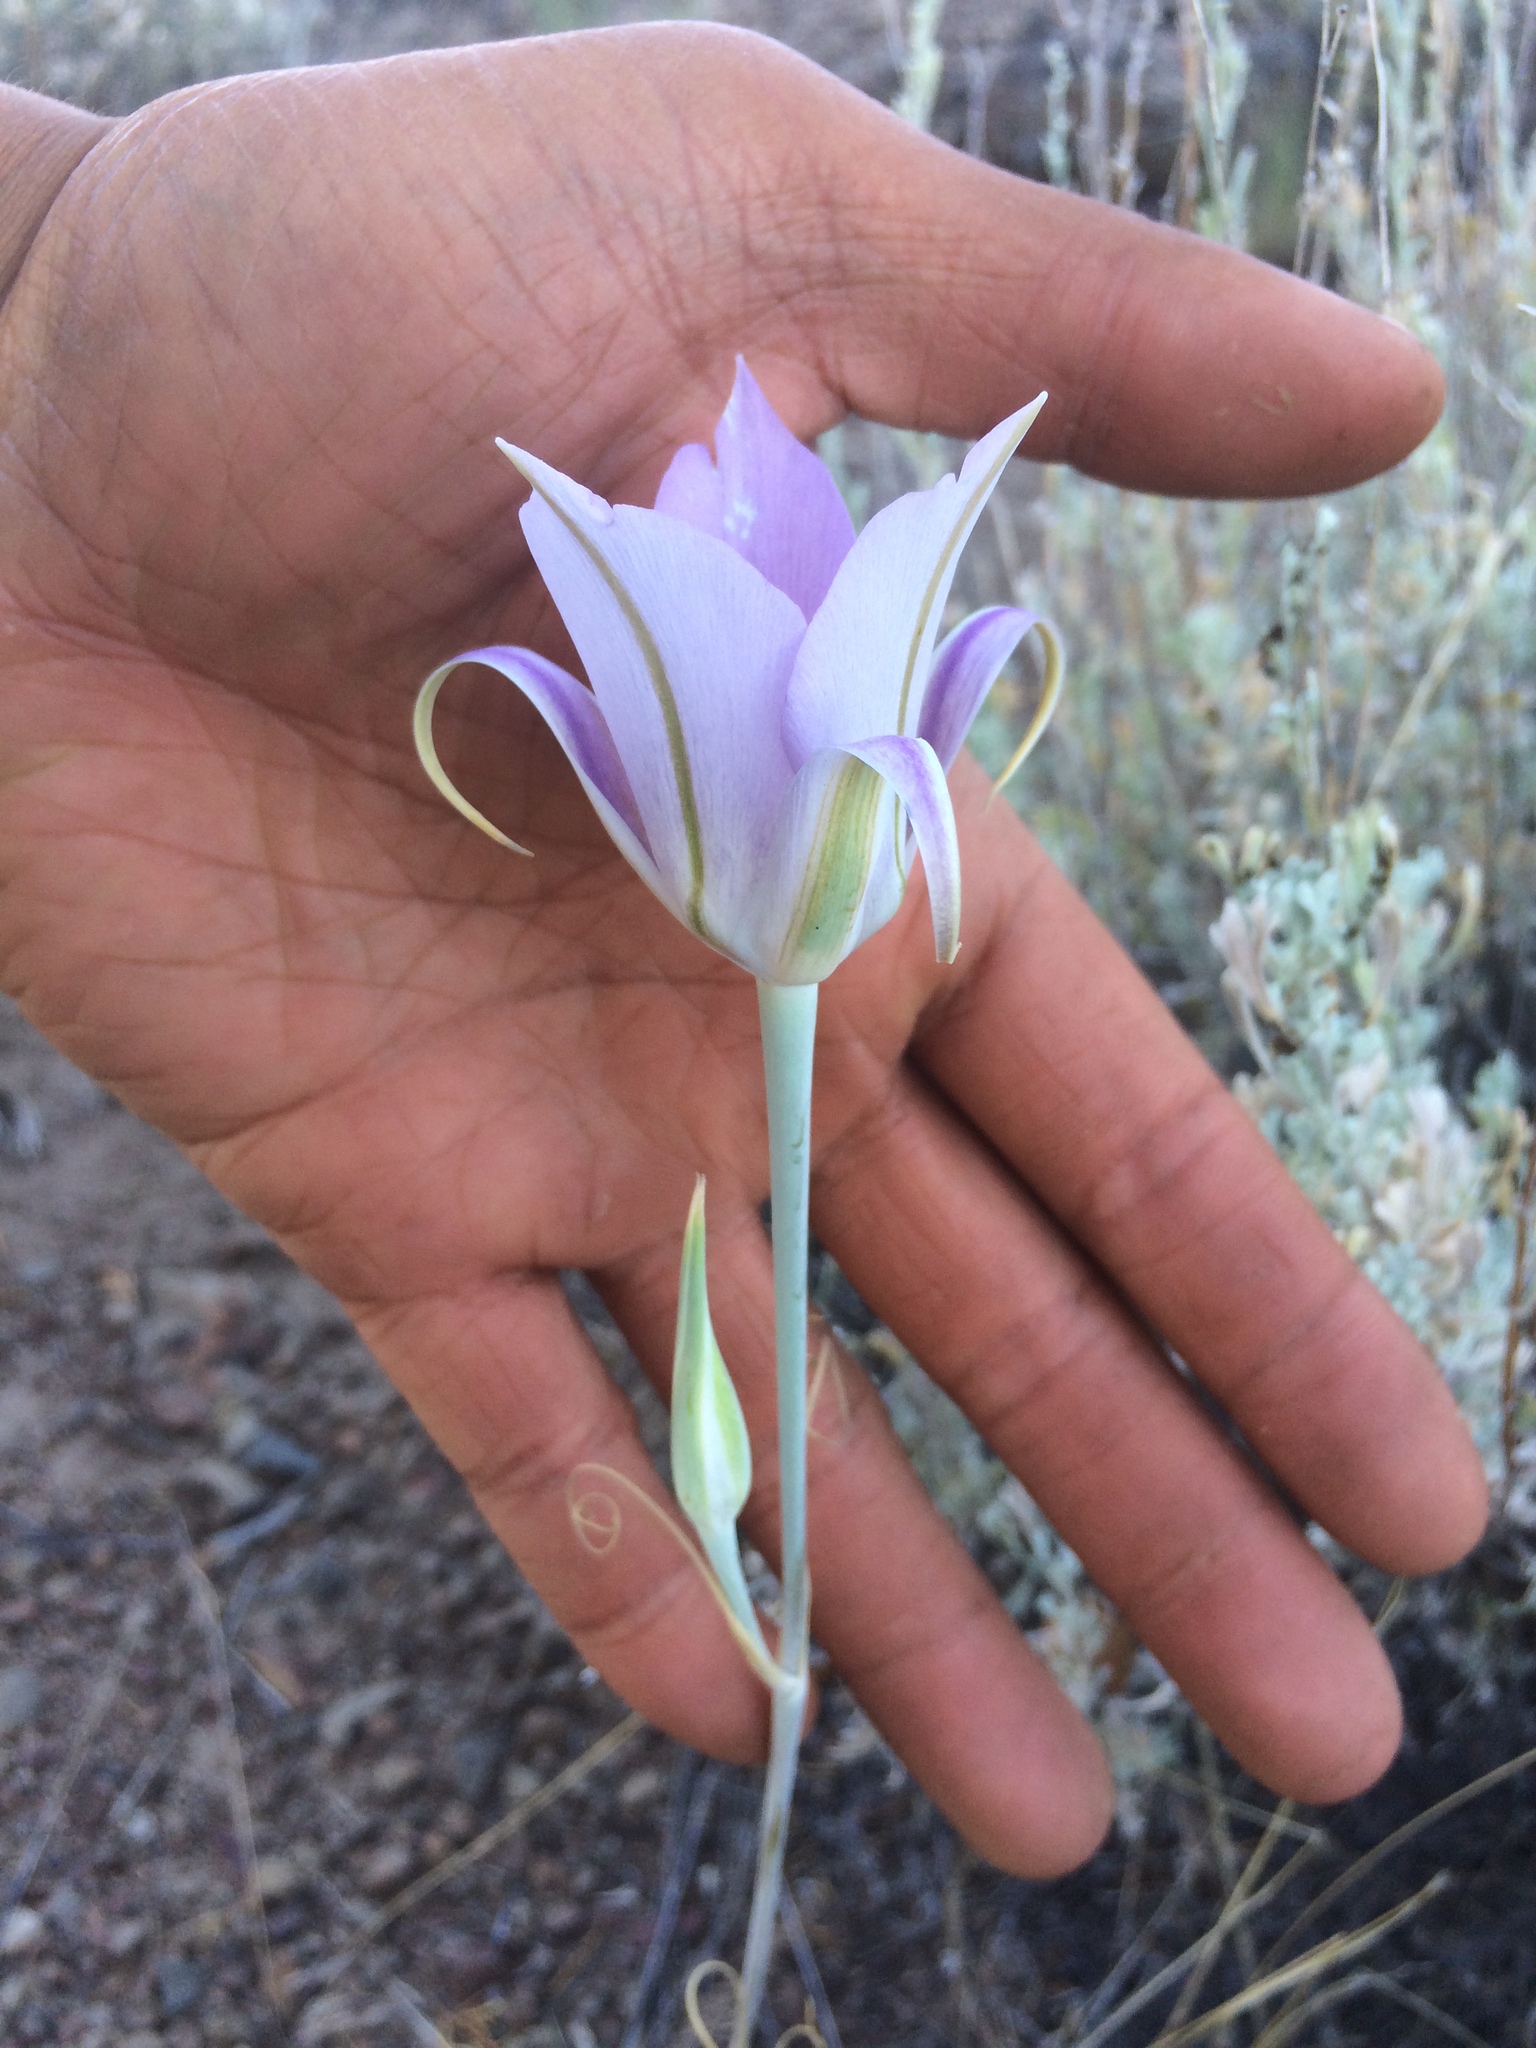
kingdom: Plantae
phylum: Tracheophyta
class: Liliopsida
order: Liliales
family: Liliaceae
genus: Calochortus
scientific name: Calochortus macrocarpus
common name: Green-band mariposa lily
